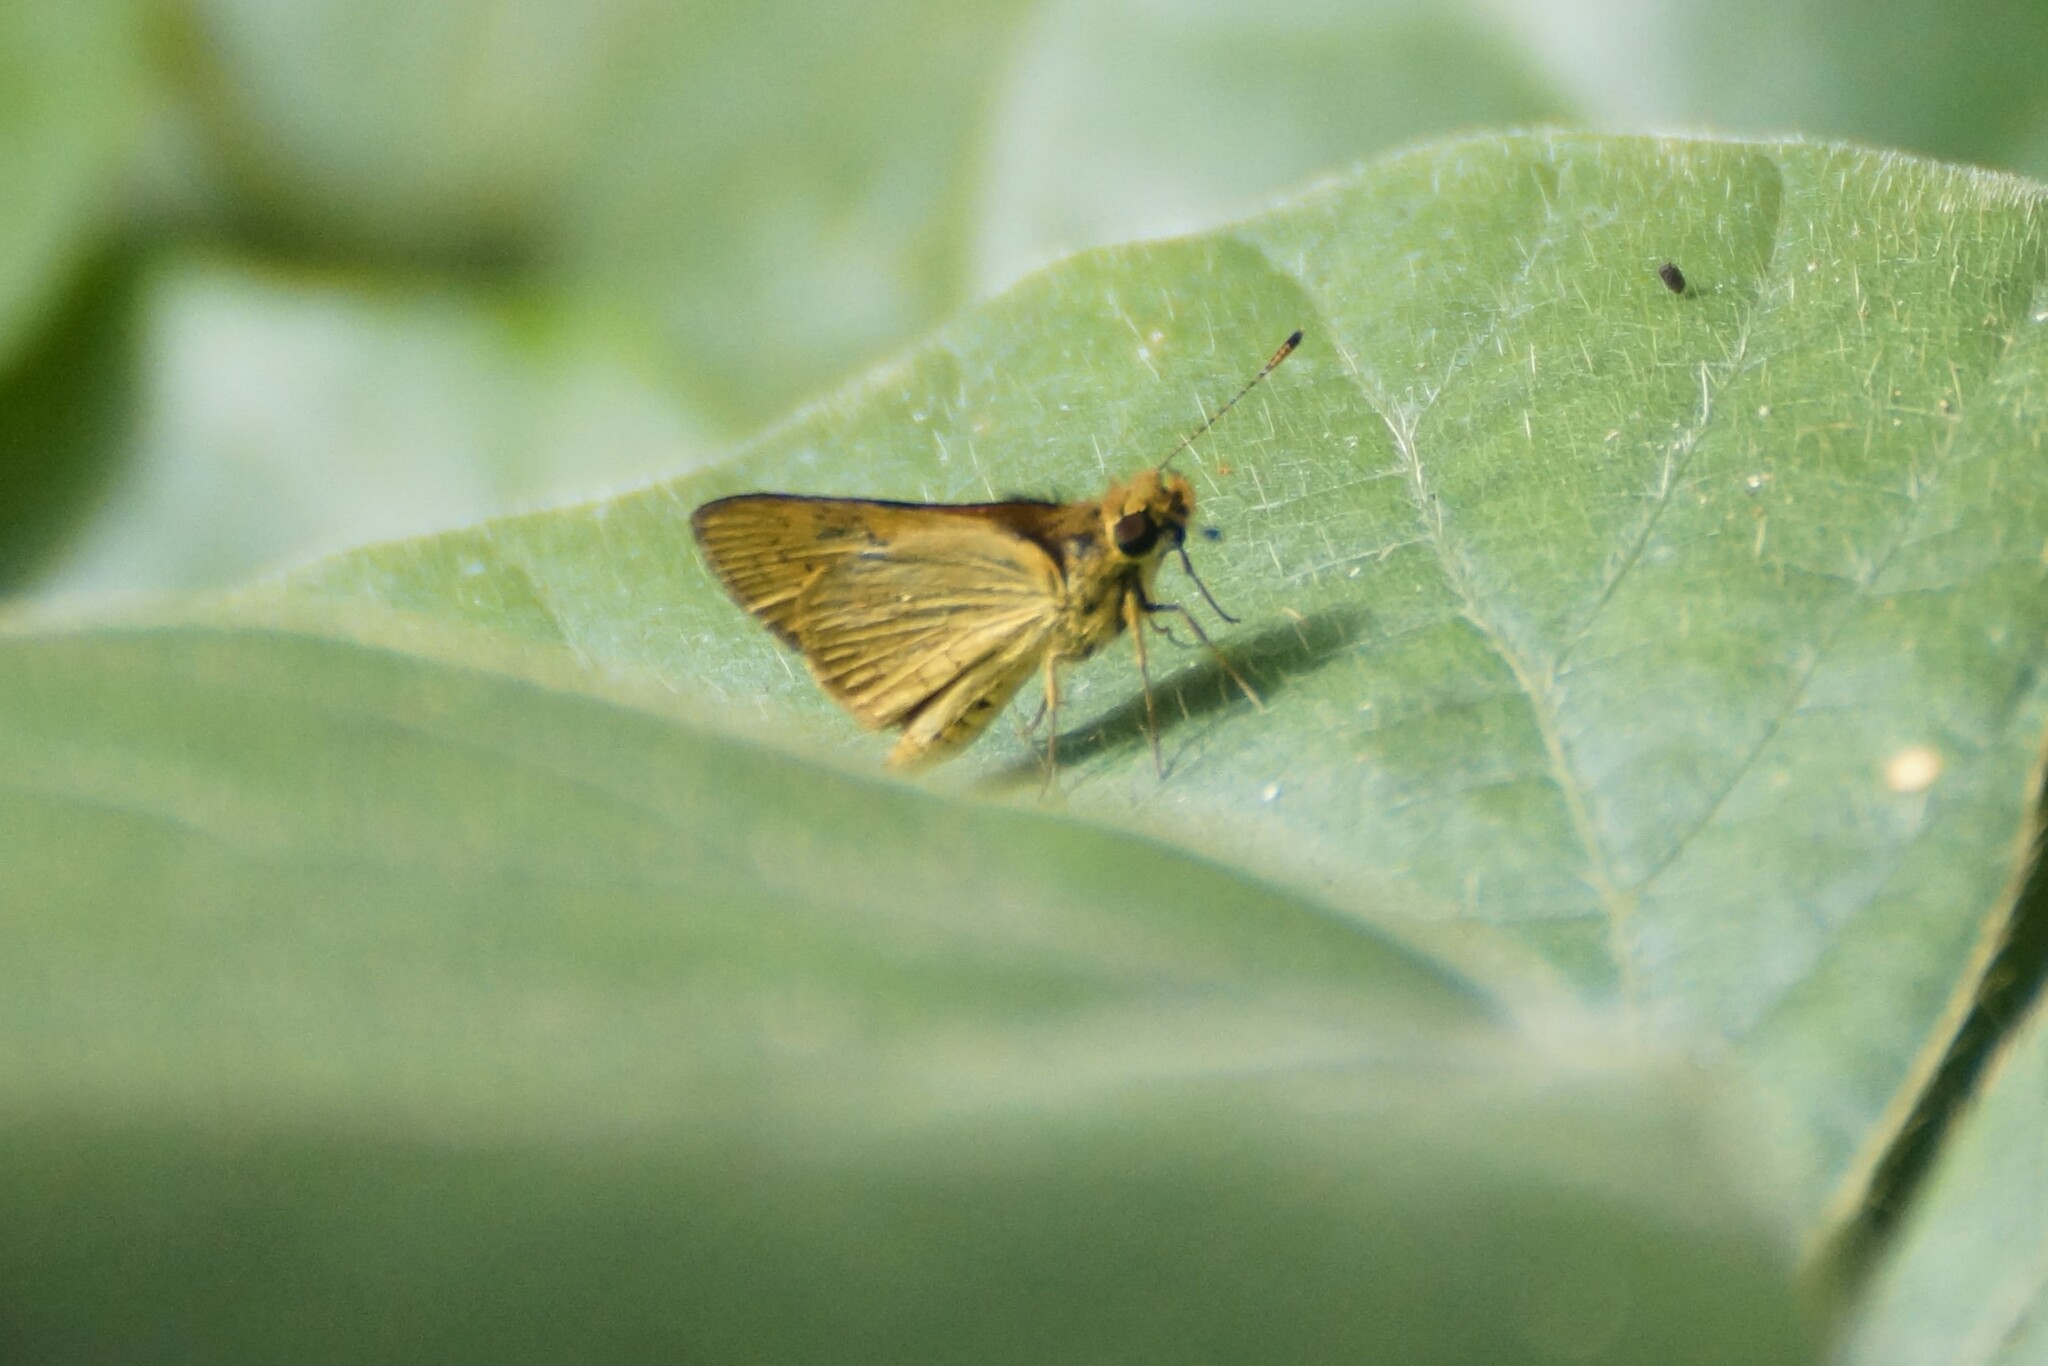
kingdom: Animalia
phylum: Arthropoda
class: Insecta
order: Lepidoptera
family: Hesperiidae
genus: Ocybadistes
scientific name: Ocybadistes ardea
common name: Dark orange dart
